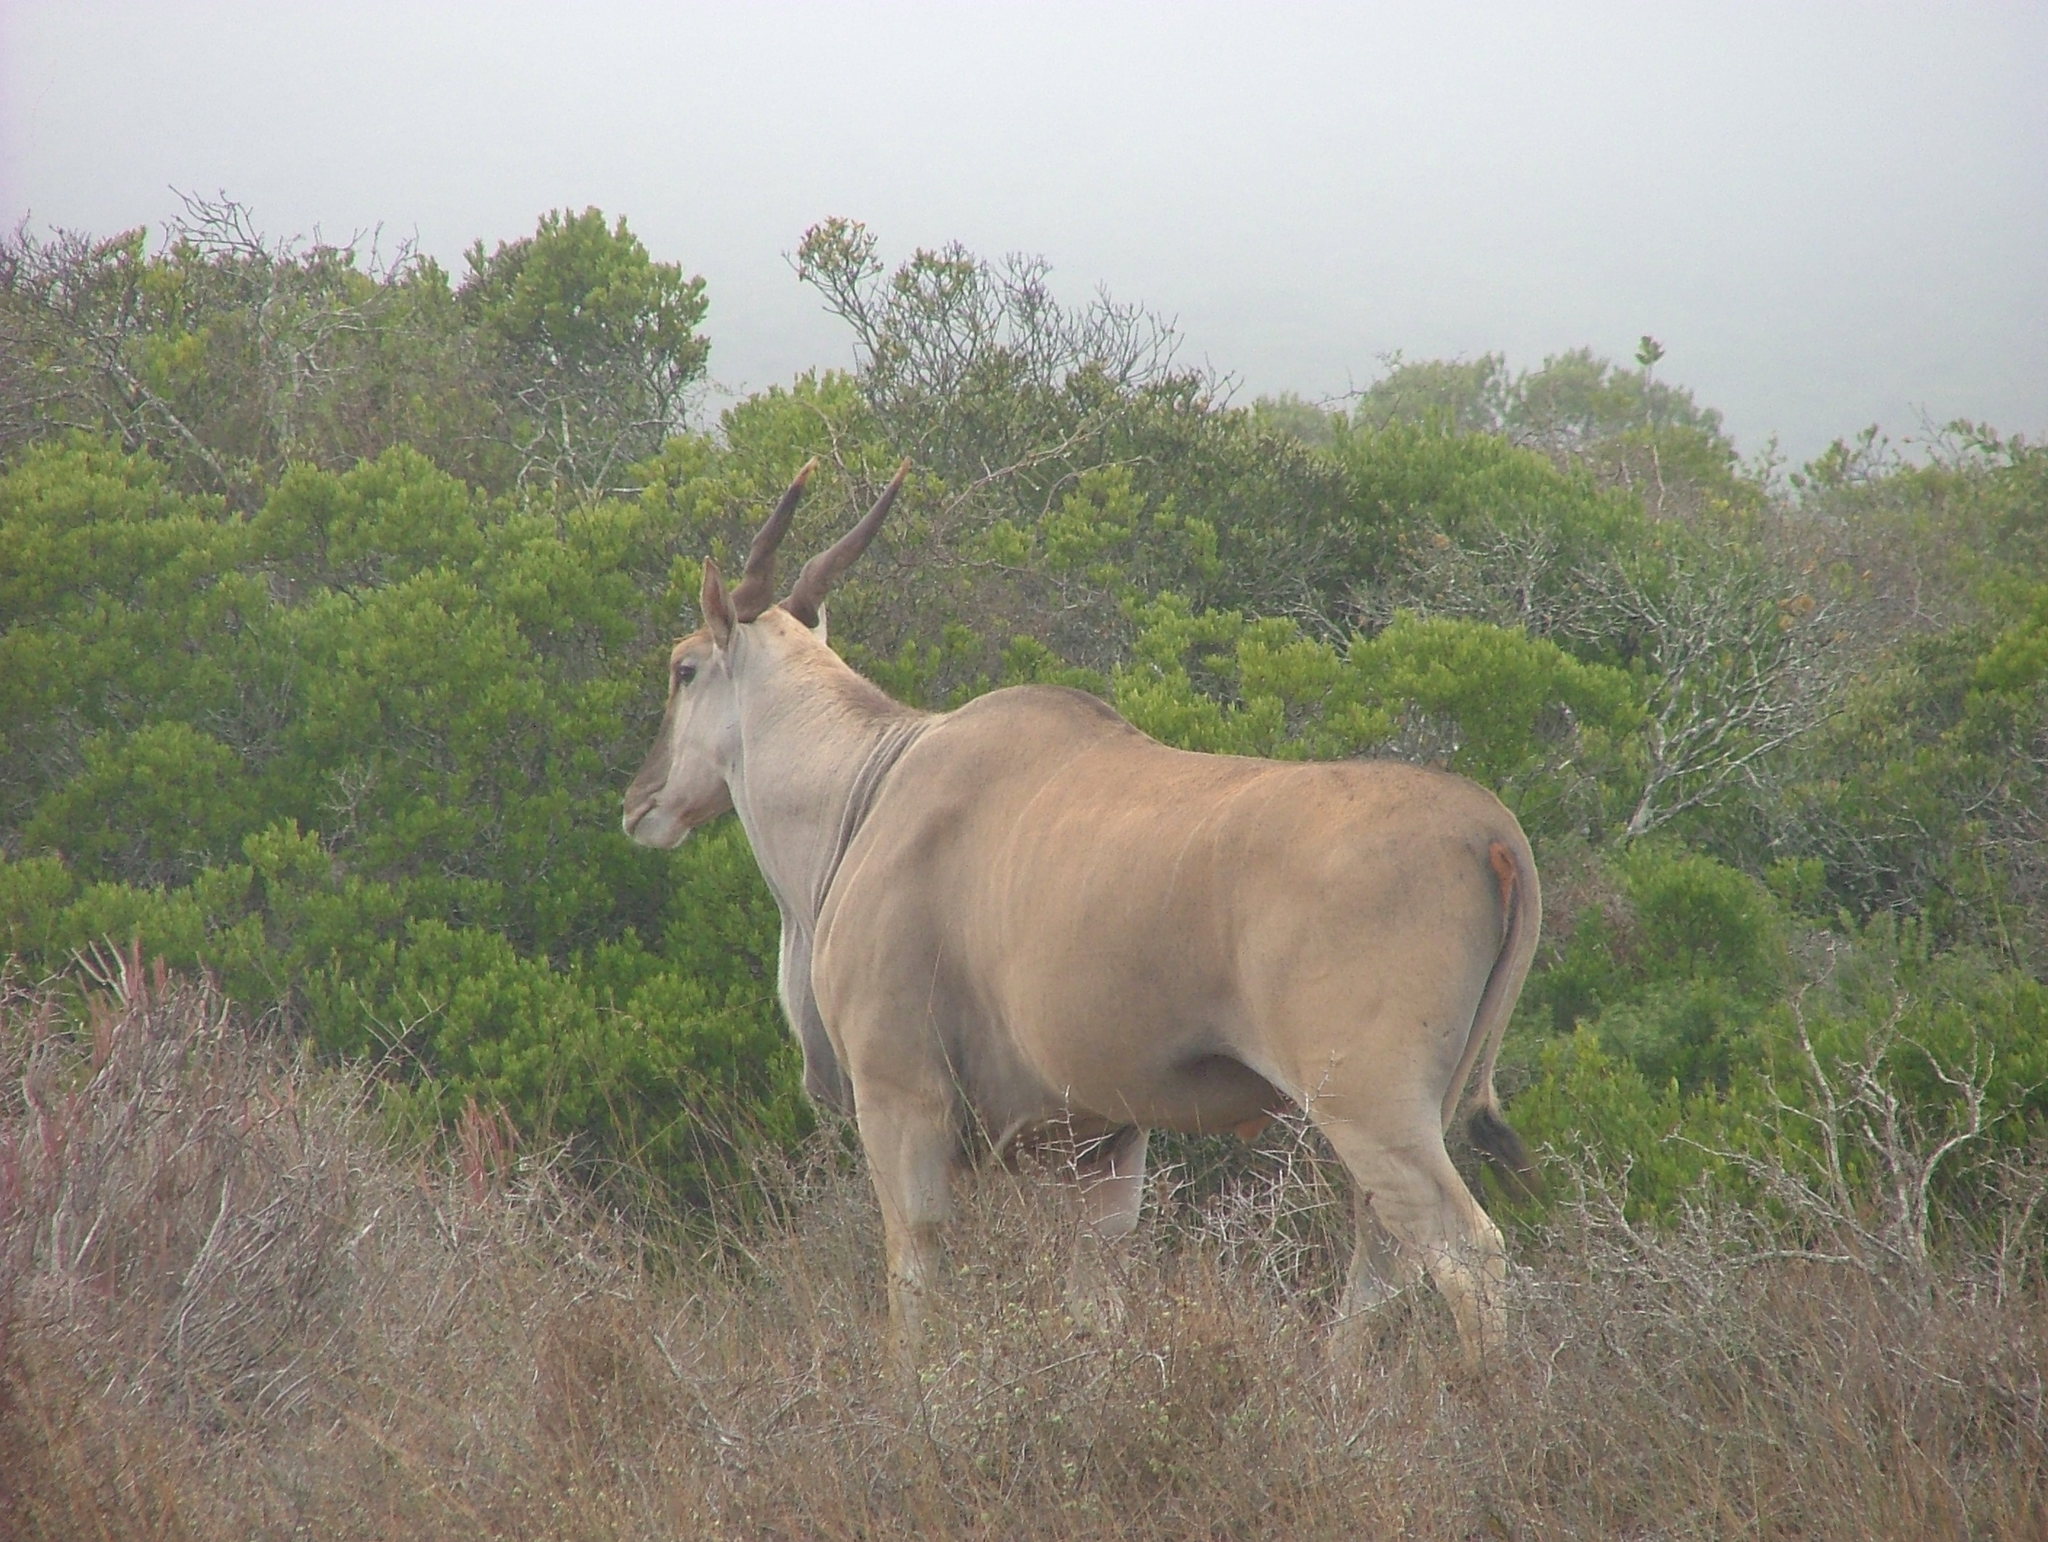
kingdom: Animalia
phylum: Chordata
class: Mammalia
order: Artiodactyla
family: Bovidae
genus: Taurotragus
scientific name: Taurotragus oryx
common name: Common eland
